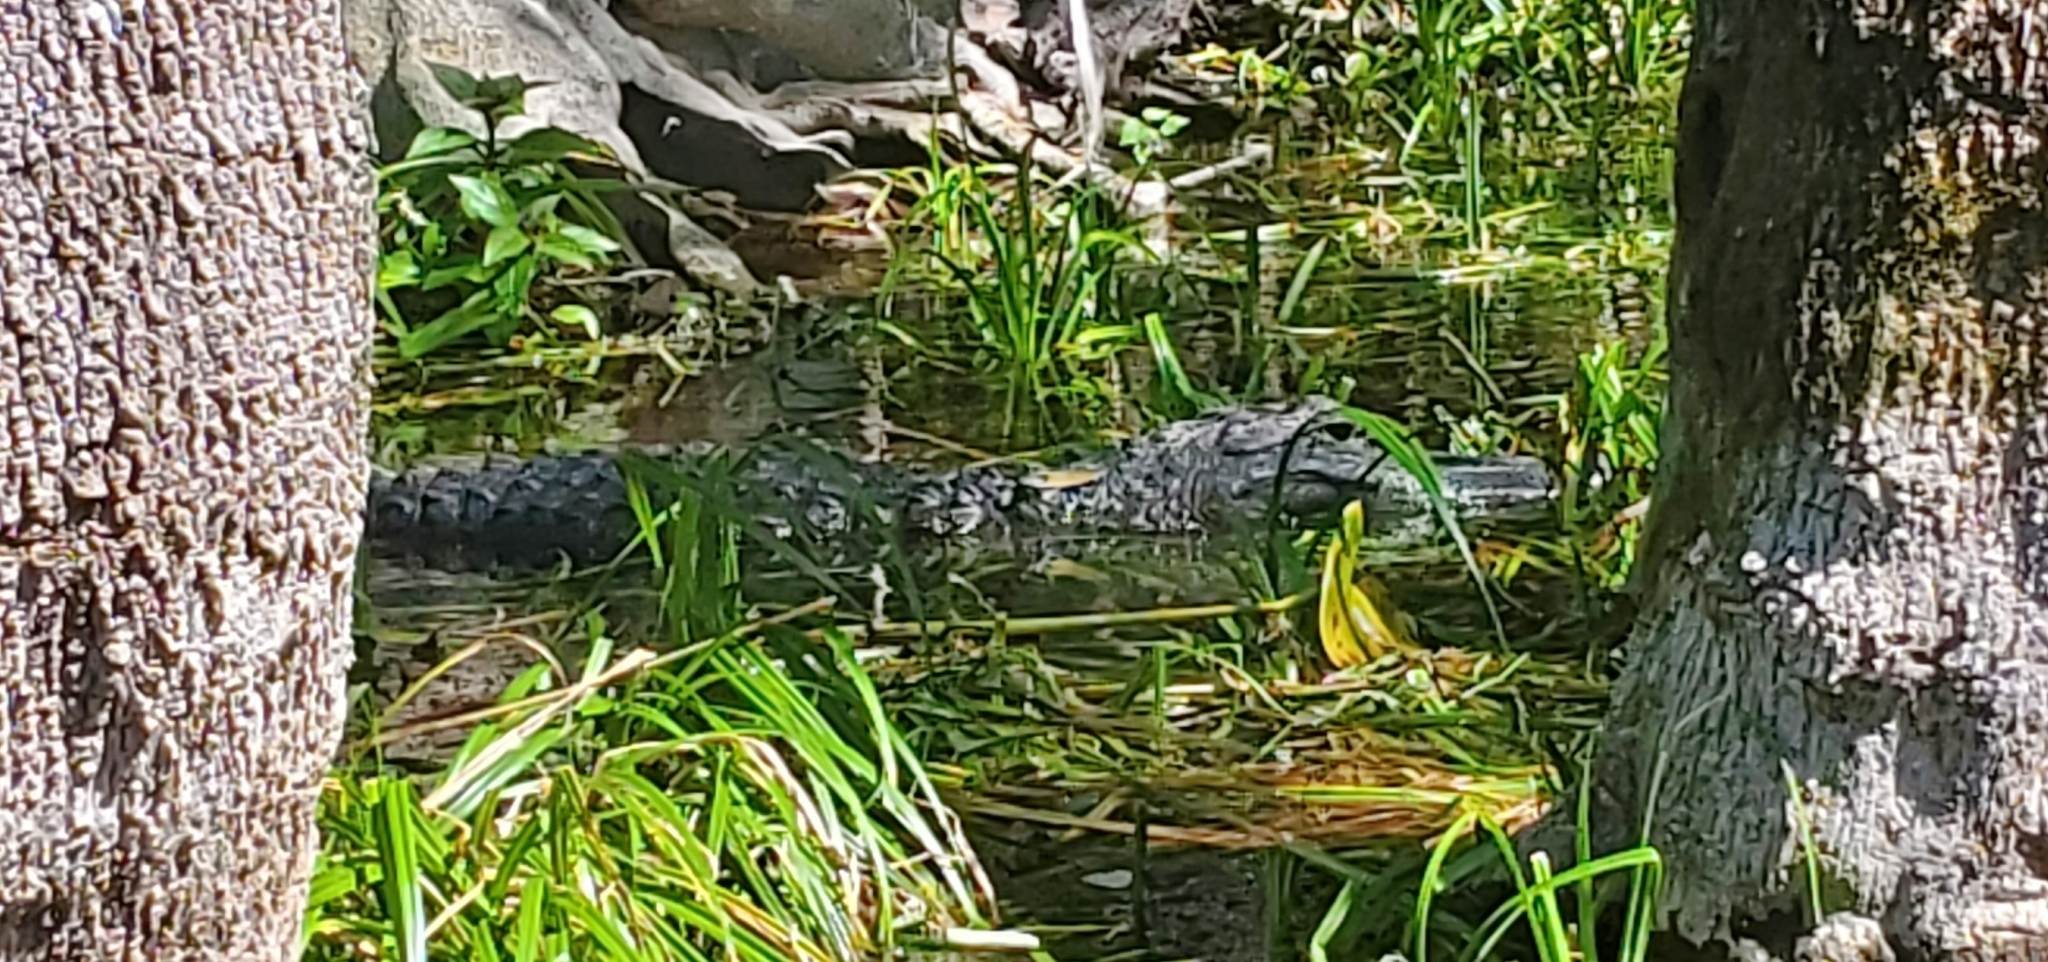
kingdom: Animalia
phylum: Chordata
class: Crocodylia
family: Alligatoridae
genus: Alligator
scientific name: Alligator mississippiensis
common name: American alligator
